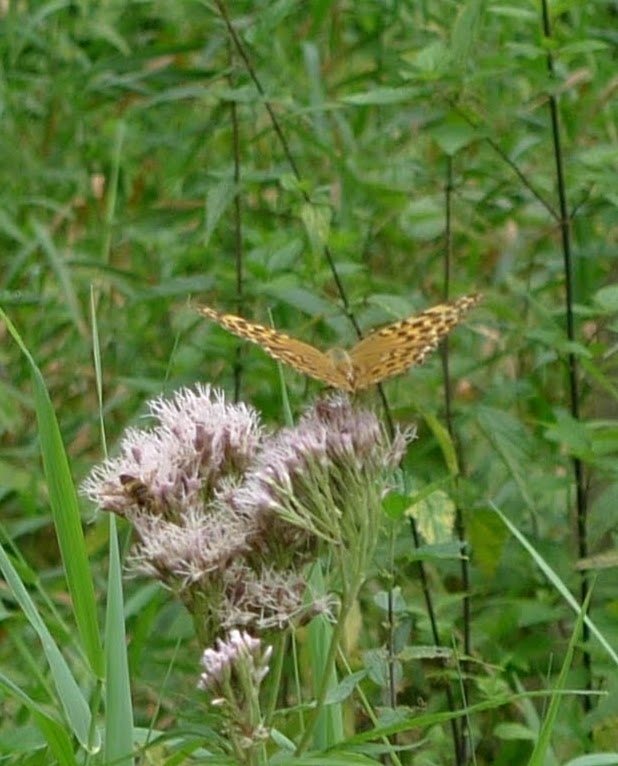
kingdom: Animalia
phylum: Arthropoda
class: Insecta
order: Lepidoptera
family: Nymphalidae
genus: Argynnis
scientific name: Argynnis paphia
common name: Silver-washed fritillary
